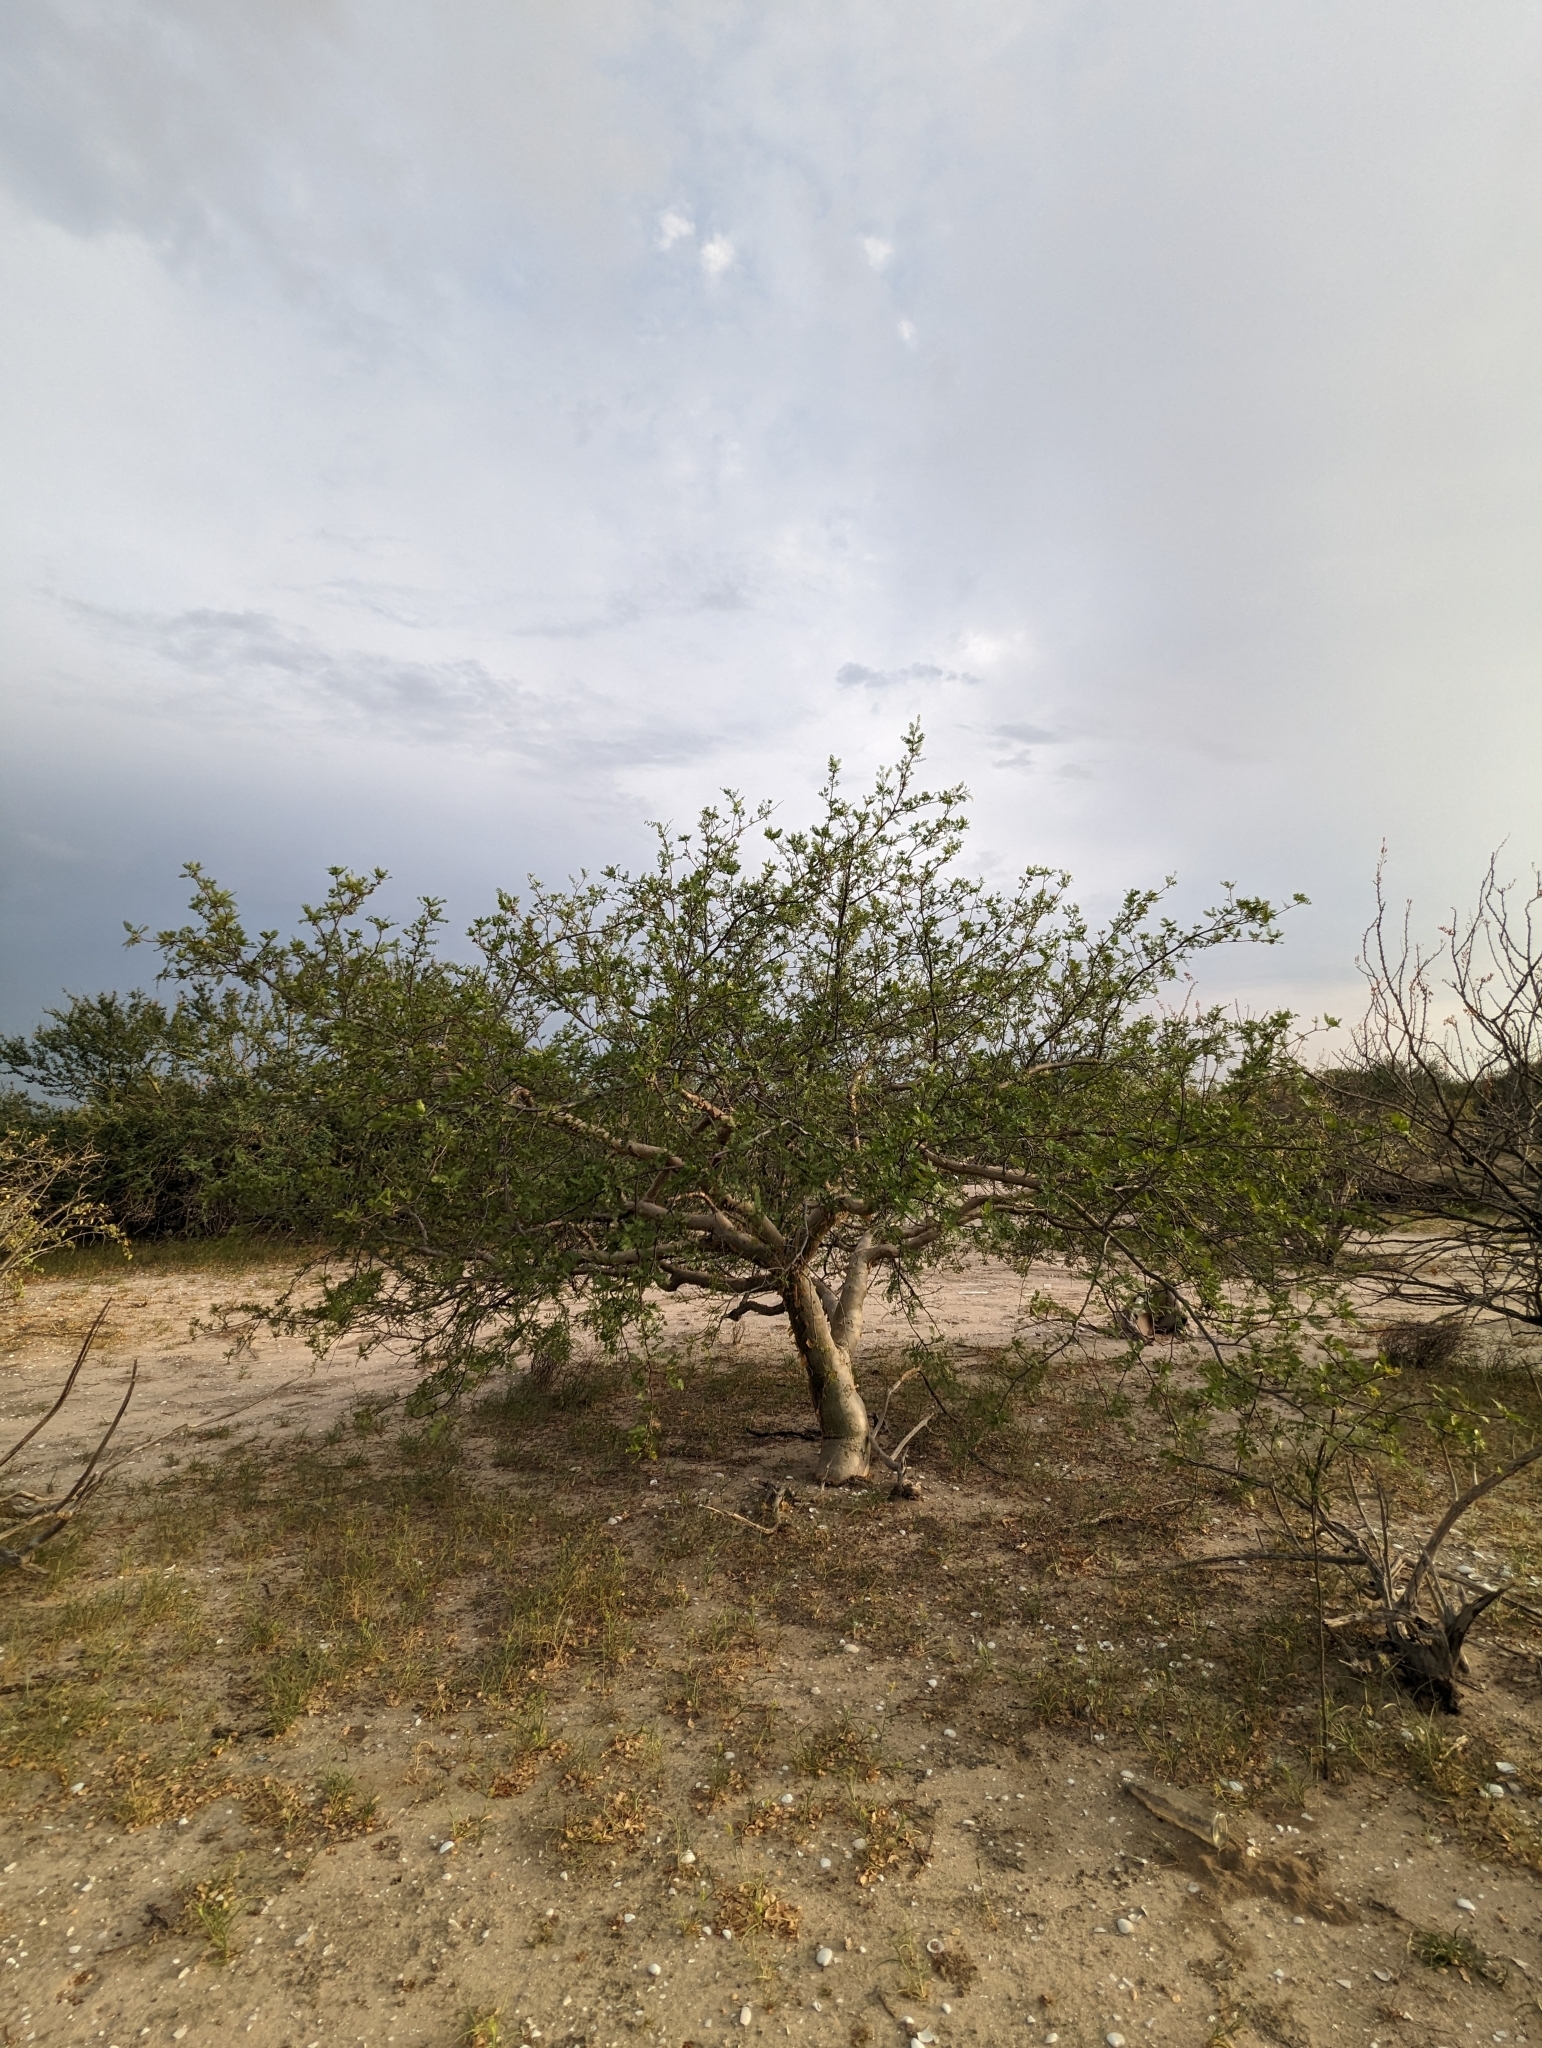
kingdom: Plantae
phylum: Tracheophyta
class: Magnoliopsida
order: Sapindales
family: Burseraceae
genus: Bursera
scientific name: Bursera microphylla
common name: Elephant tree
